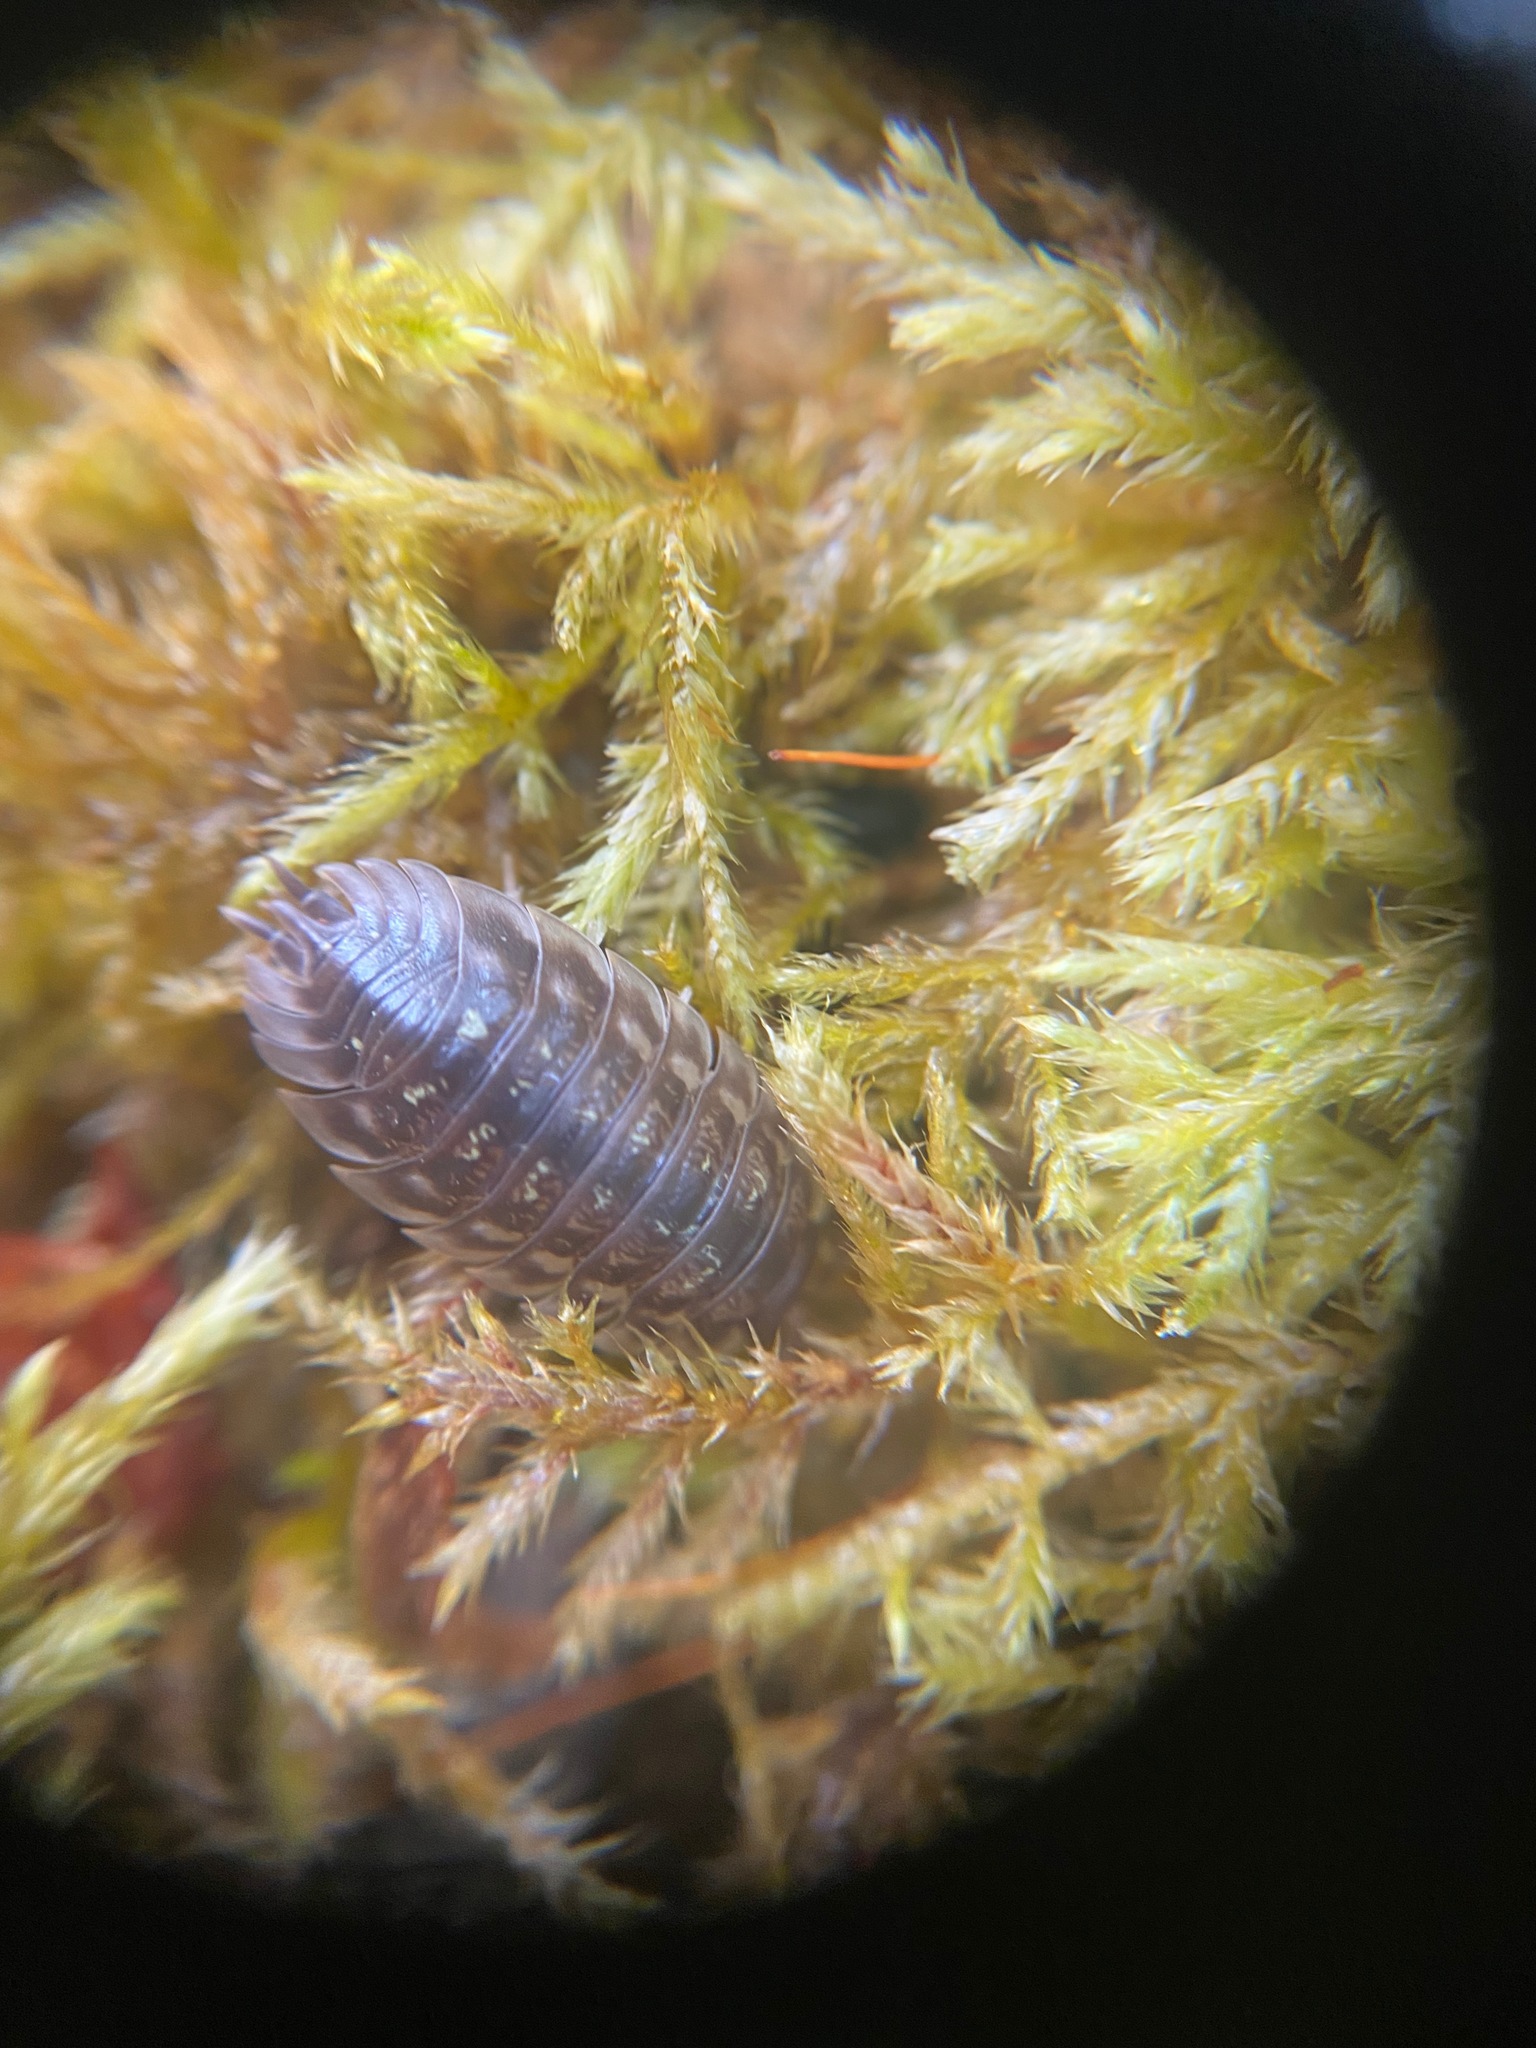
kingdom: Animalia
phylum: Arthropoda
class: Malacostraca
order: Isopoda
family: Oniscidae
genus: Oniscus
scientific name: Oniscus asellus
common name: Common shiny woodlouse
